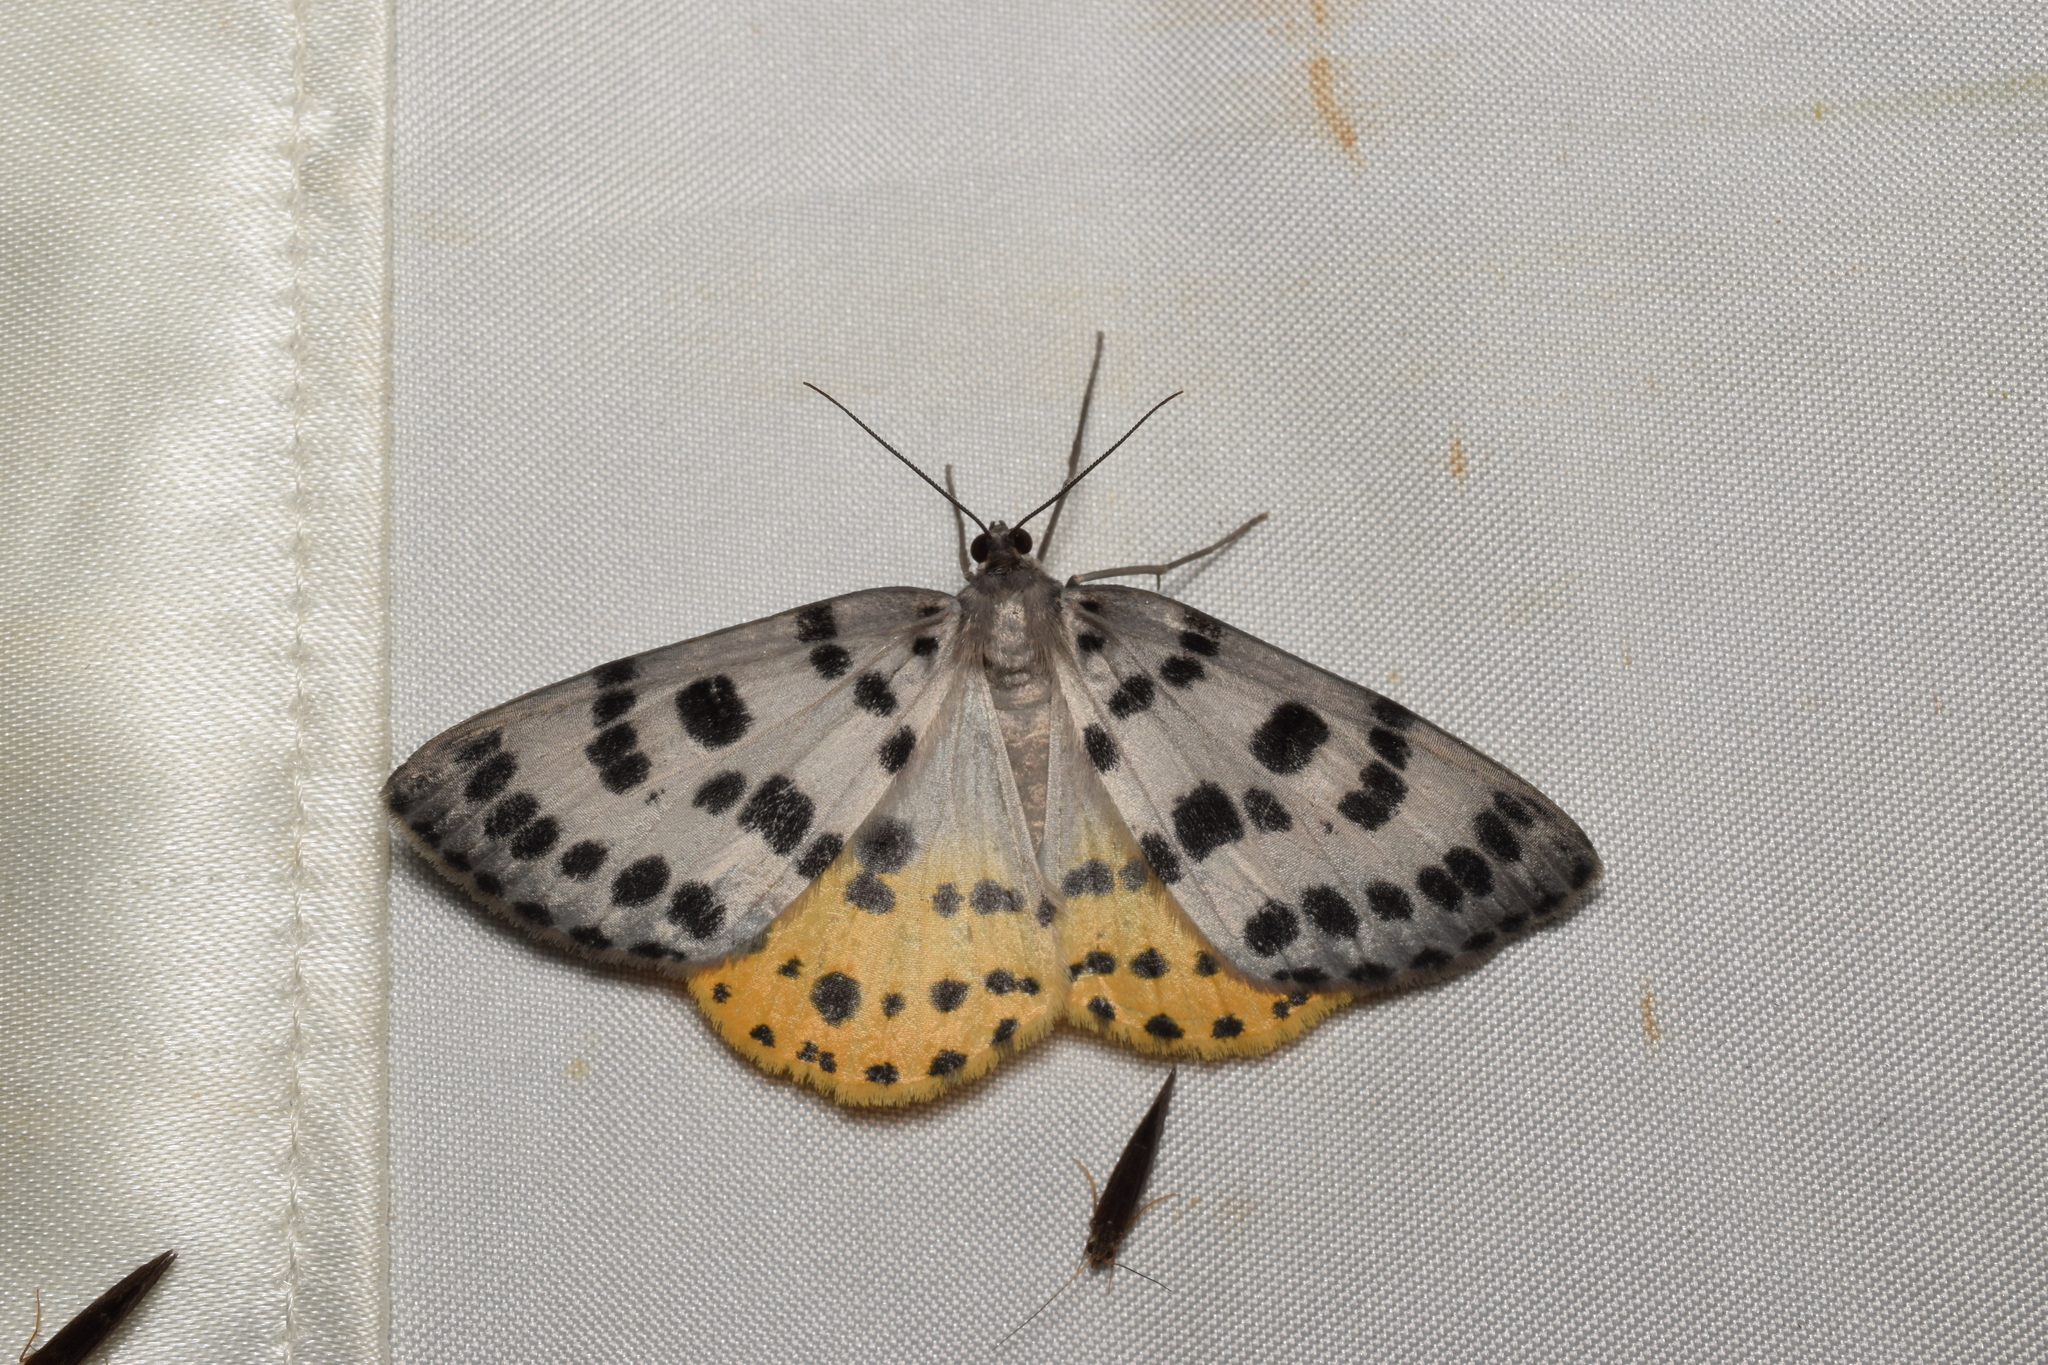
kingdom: Animalia
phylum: Arthropoda
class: Insecta
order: Lepidoptera
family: Geometridae
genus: Arichanna
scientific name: Arichanna
